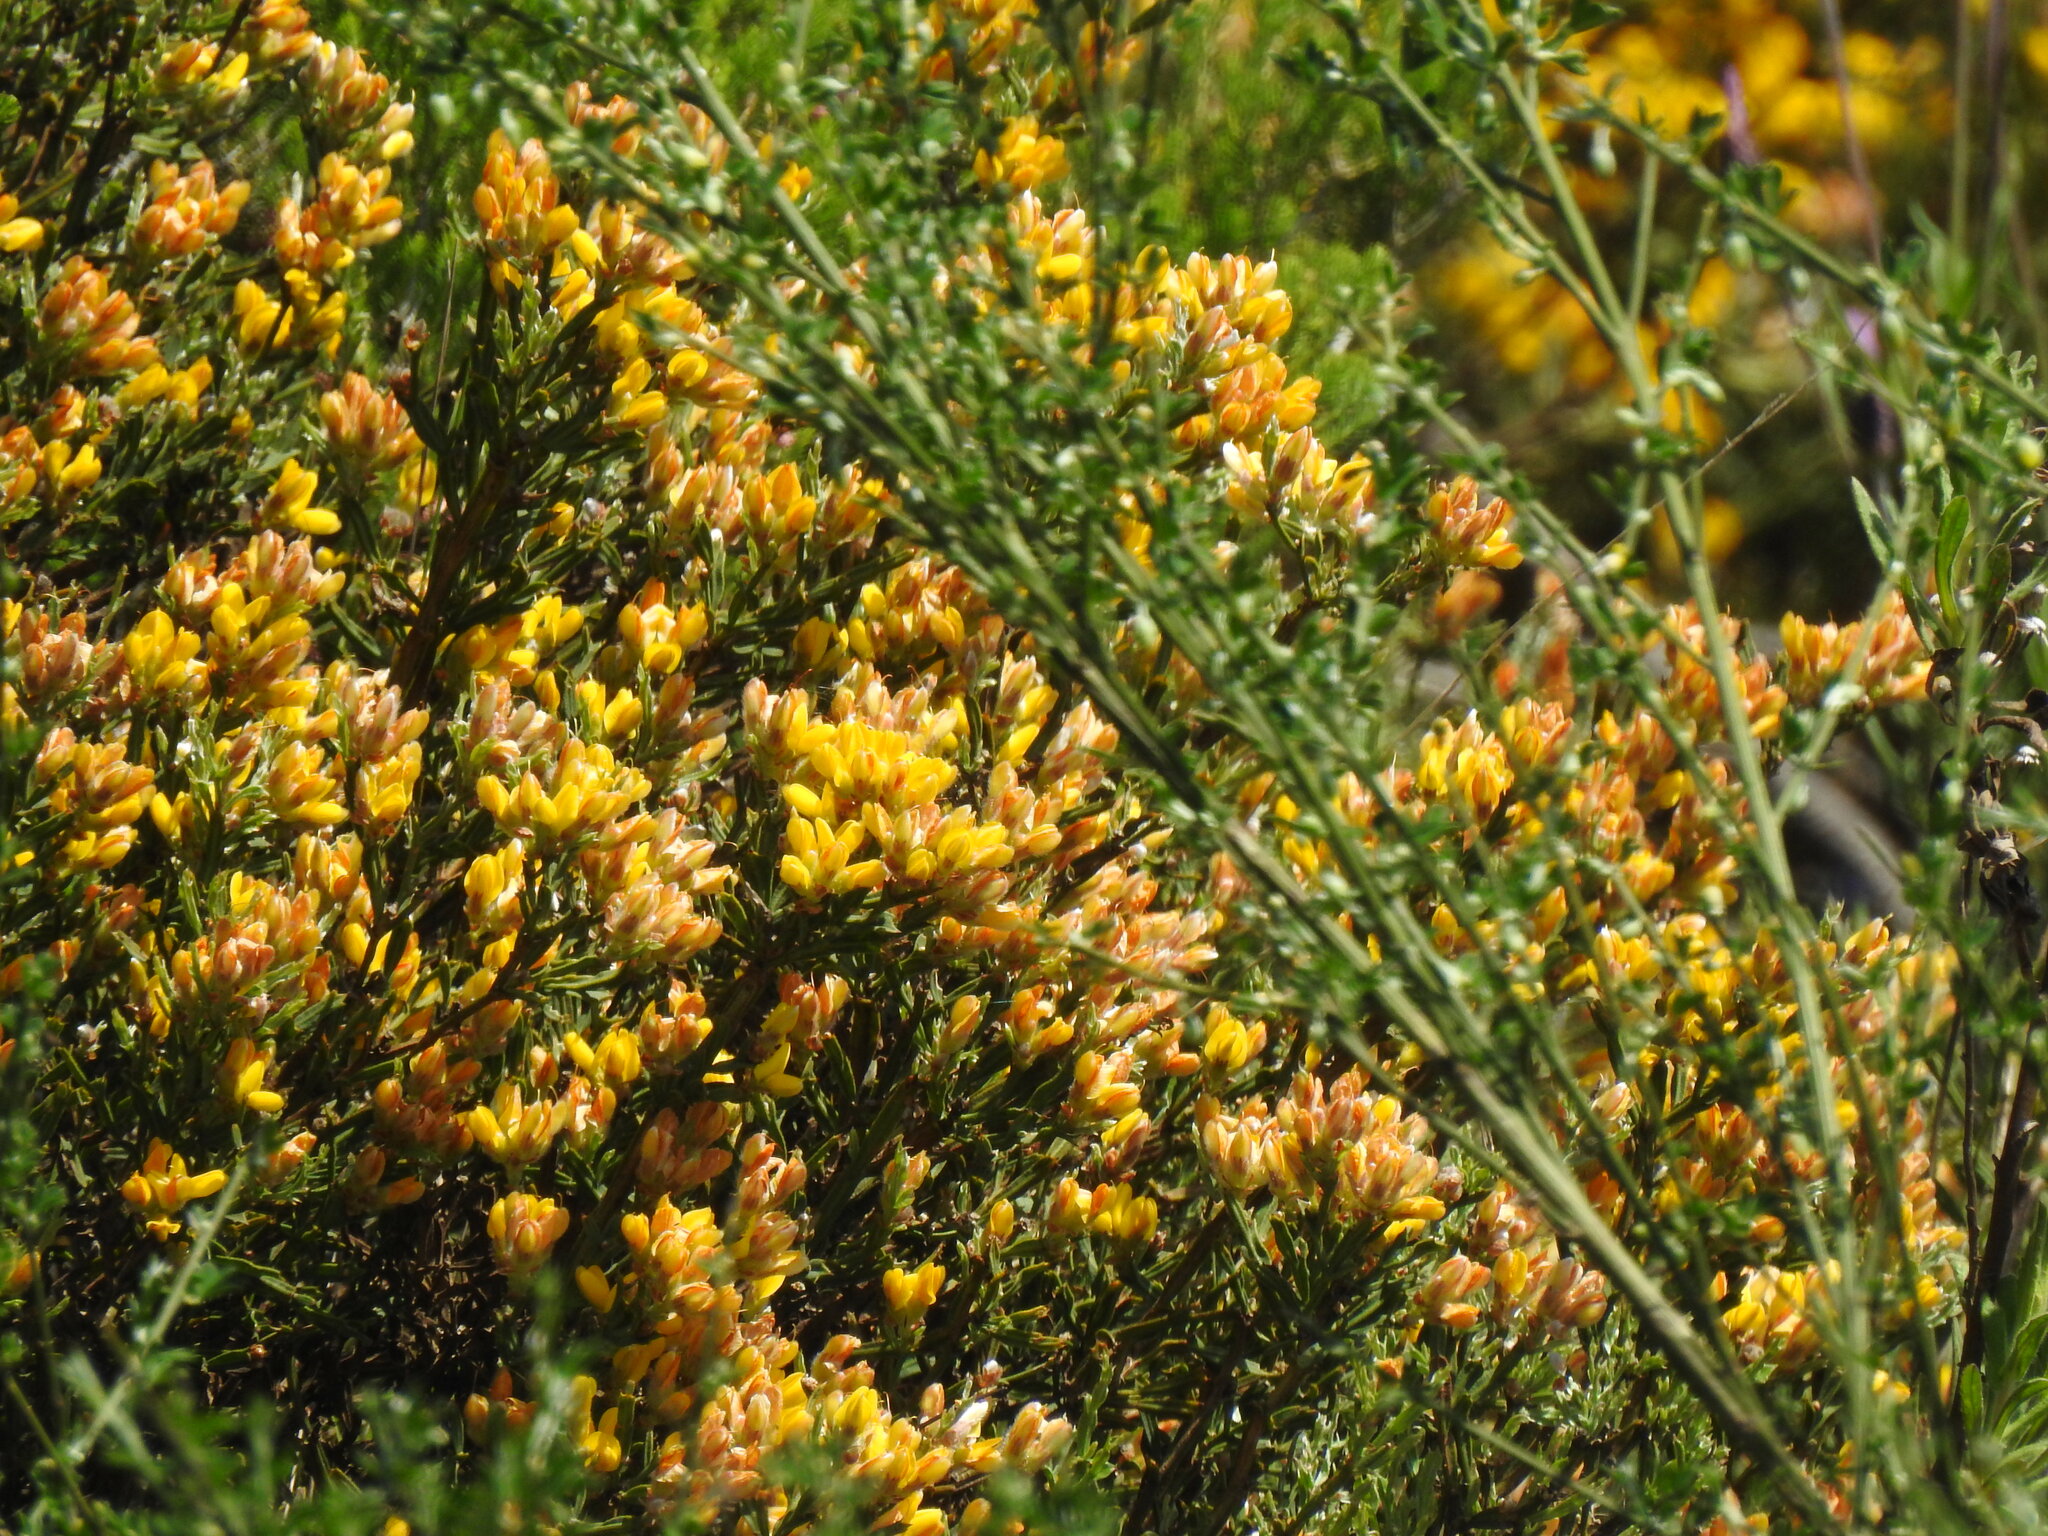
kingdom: Plantae
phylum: Tracheophyta
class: Magnoliopsida
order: Fabales
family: Fabaceae
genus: Genista
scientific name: Genista tridentata
